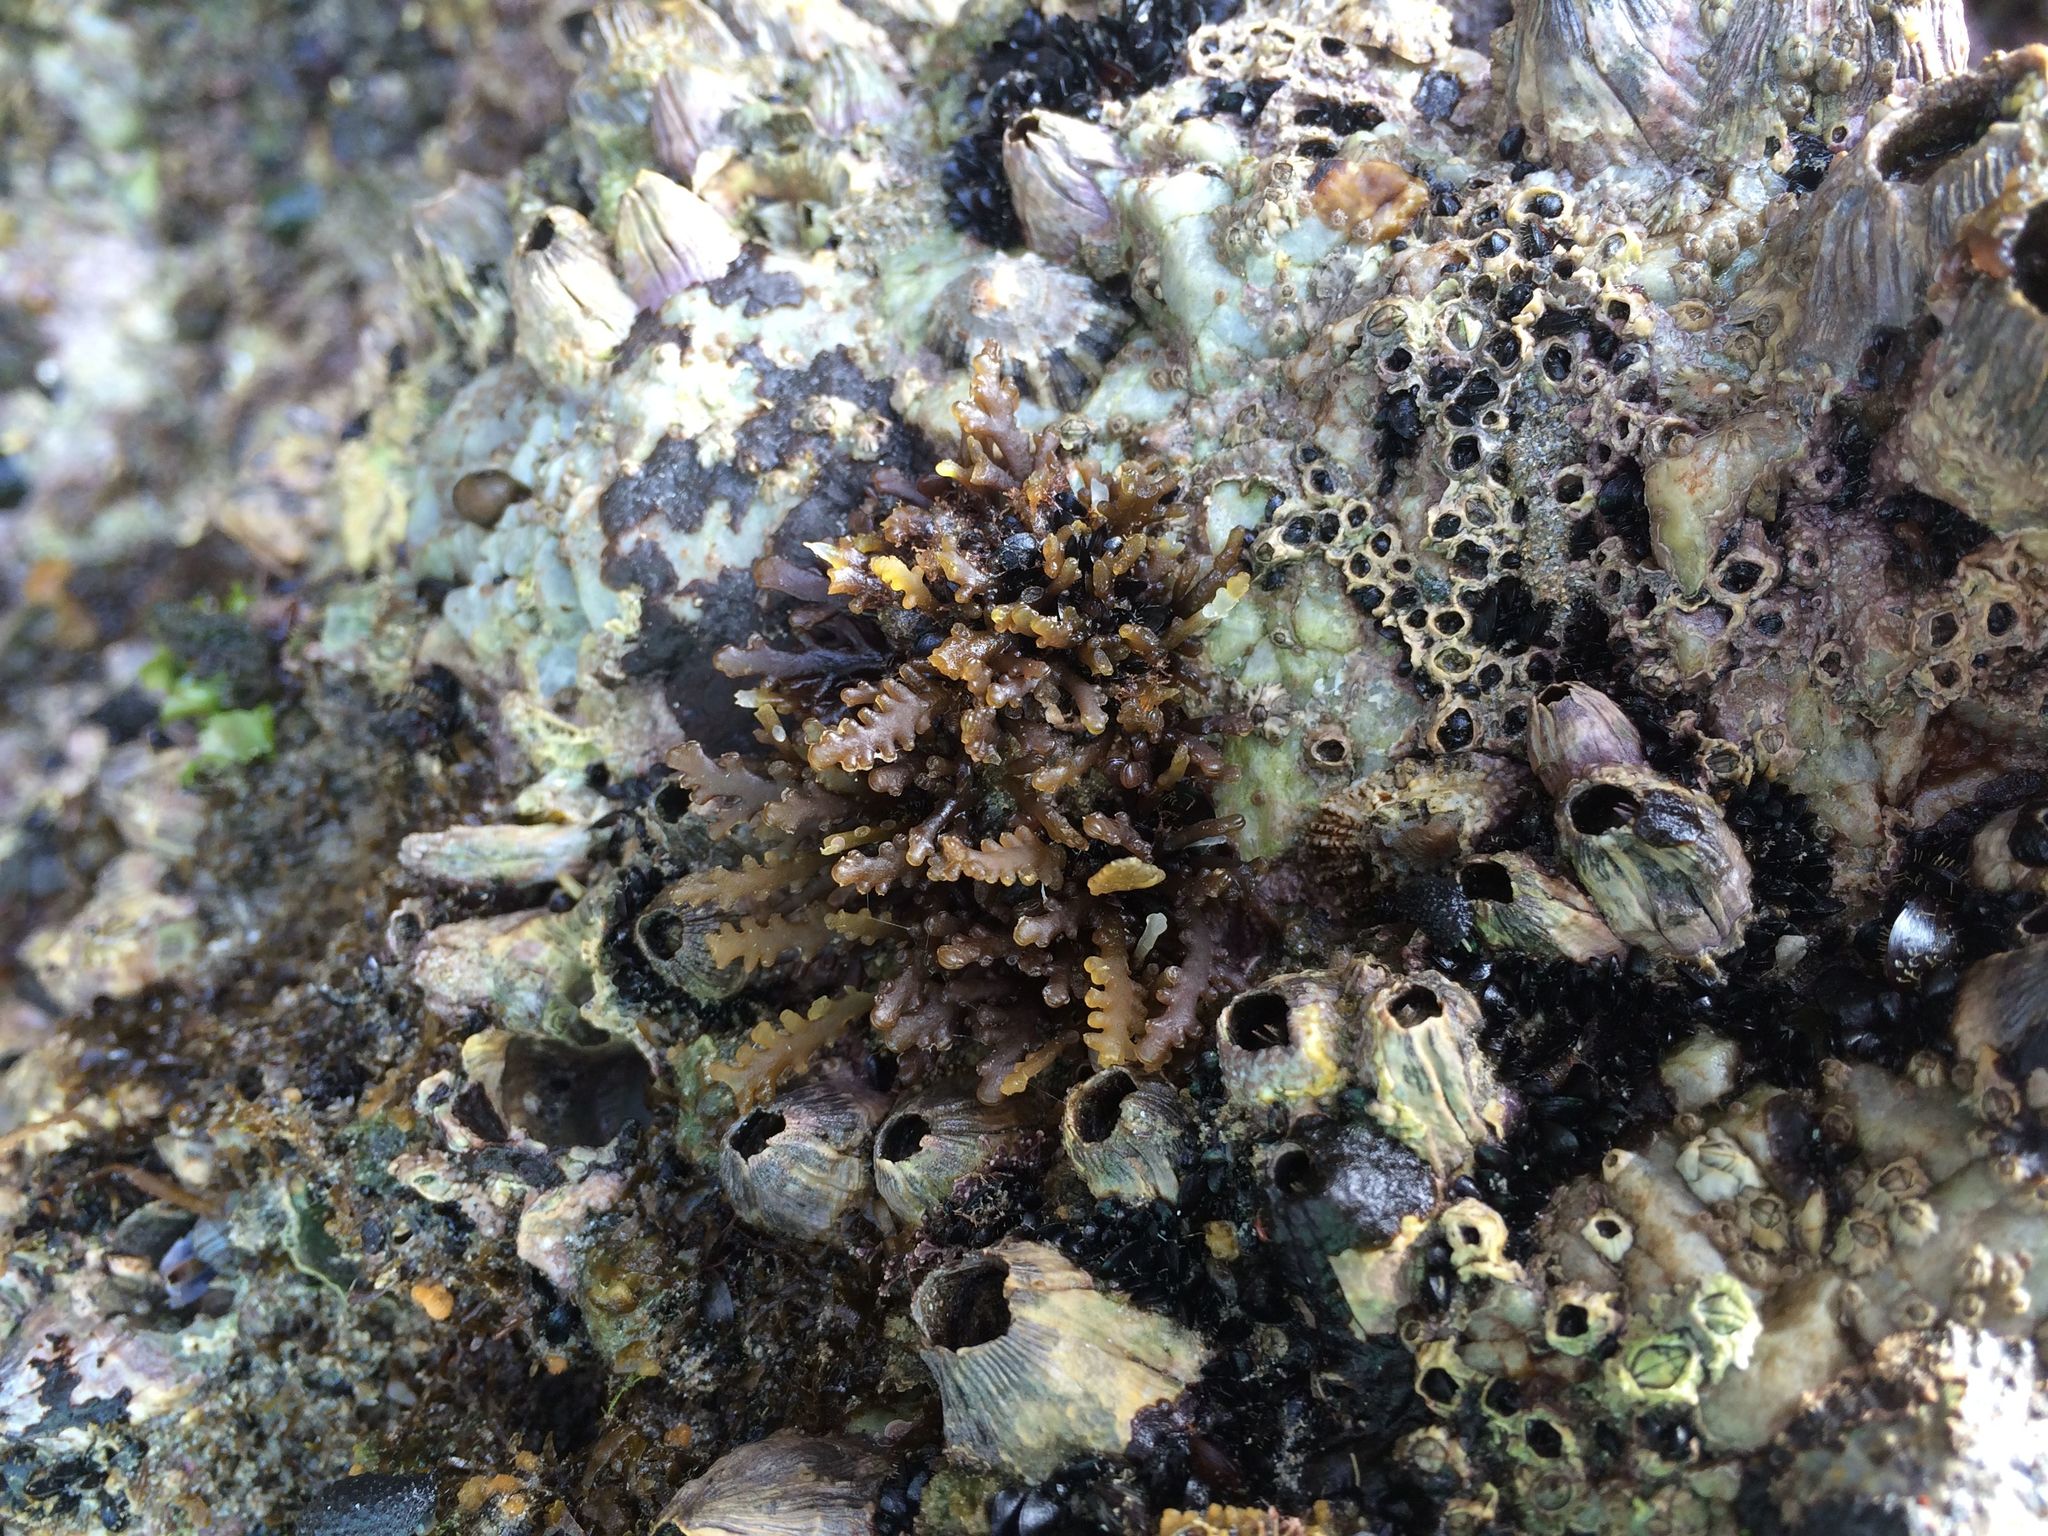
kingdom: Plantae
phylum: Rhodophyta
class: Florideophyceae
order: Ceramiales
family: Rhodomelaceae
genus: Laurencia
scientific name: Laurencia Osmundea pinnatifida
